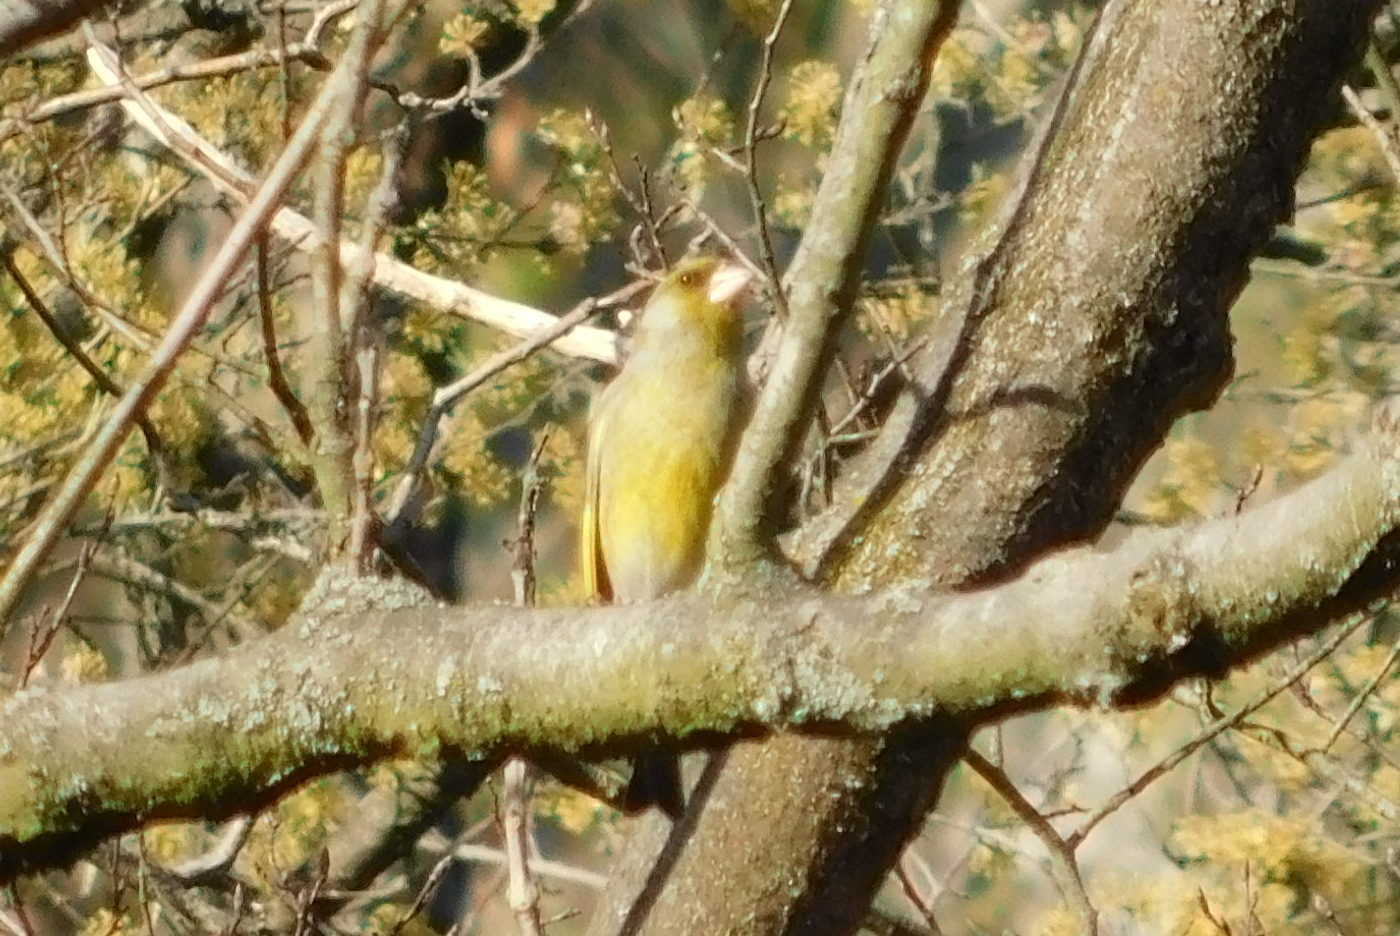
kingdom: Plantae
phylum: Tracheophyta
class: Liliopsida
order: Poales
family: Poaceae
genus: Chloris
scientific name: Chloris chloris
